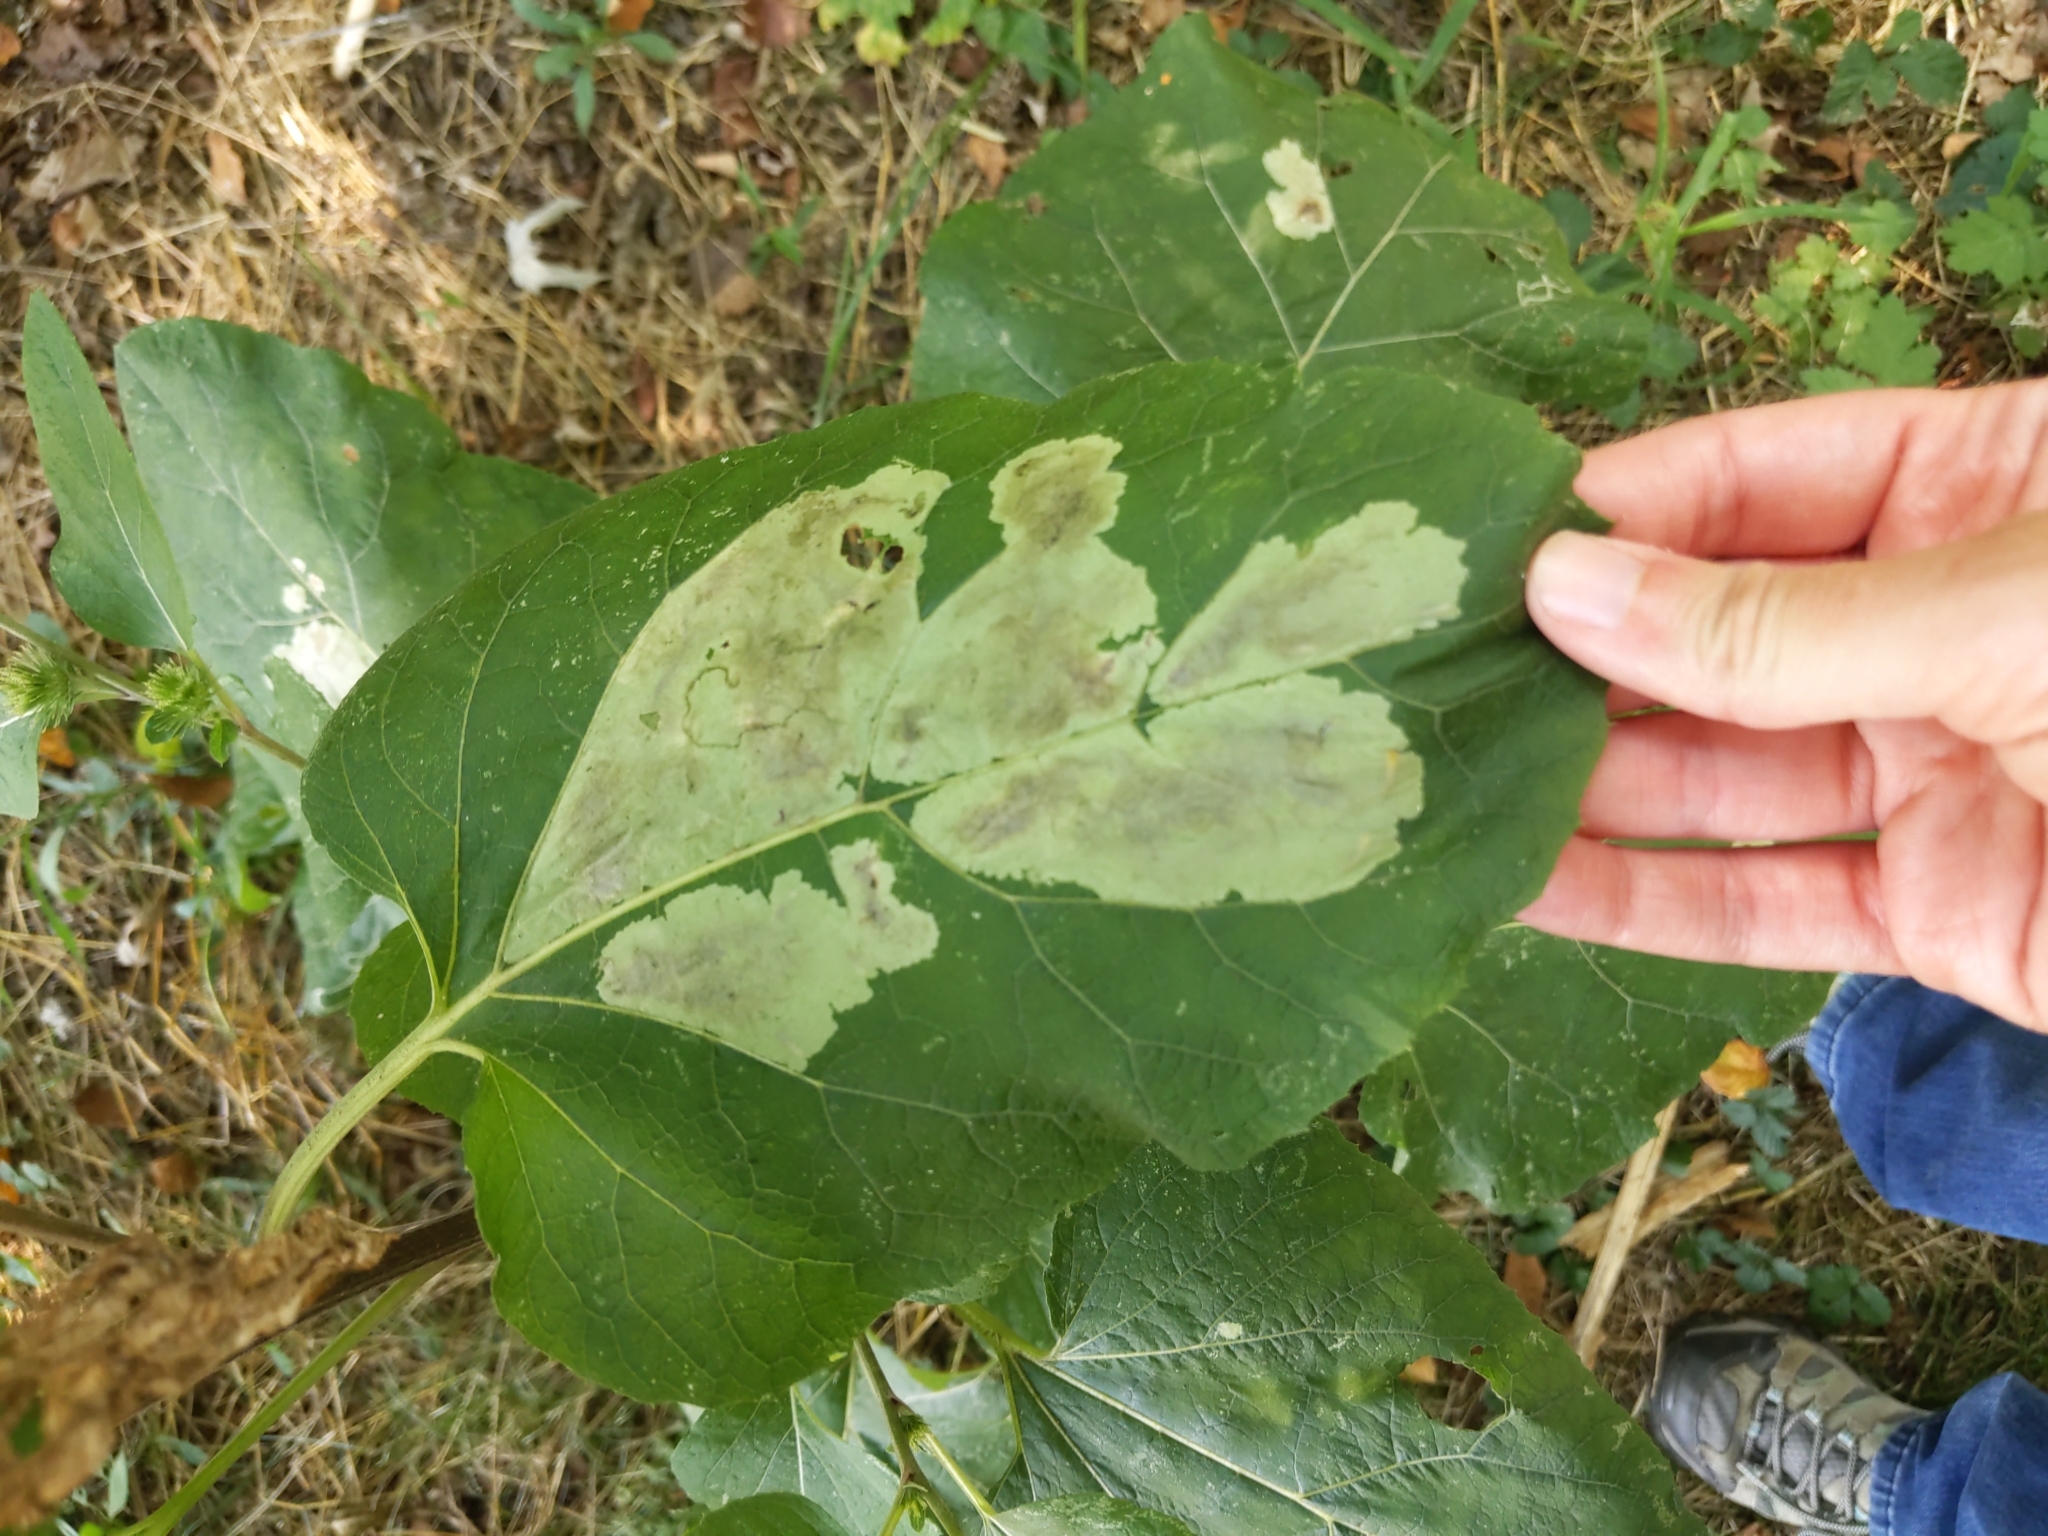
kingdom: Animalia
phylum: Arthropoda
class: Insecta
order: Diptera
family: Agromyzidae
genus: Calycomyza
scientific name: Calycomyza flavinotum
